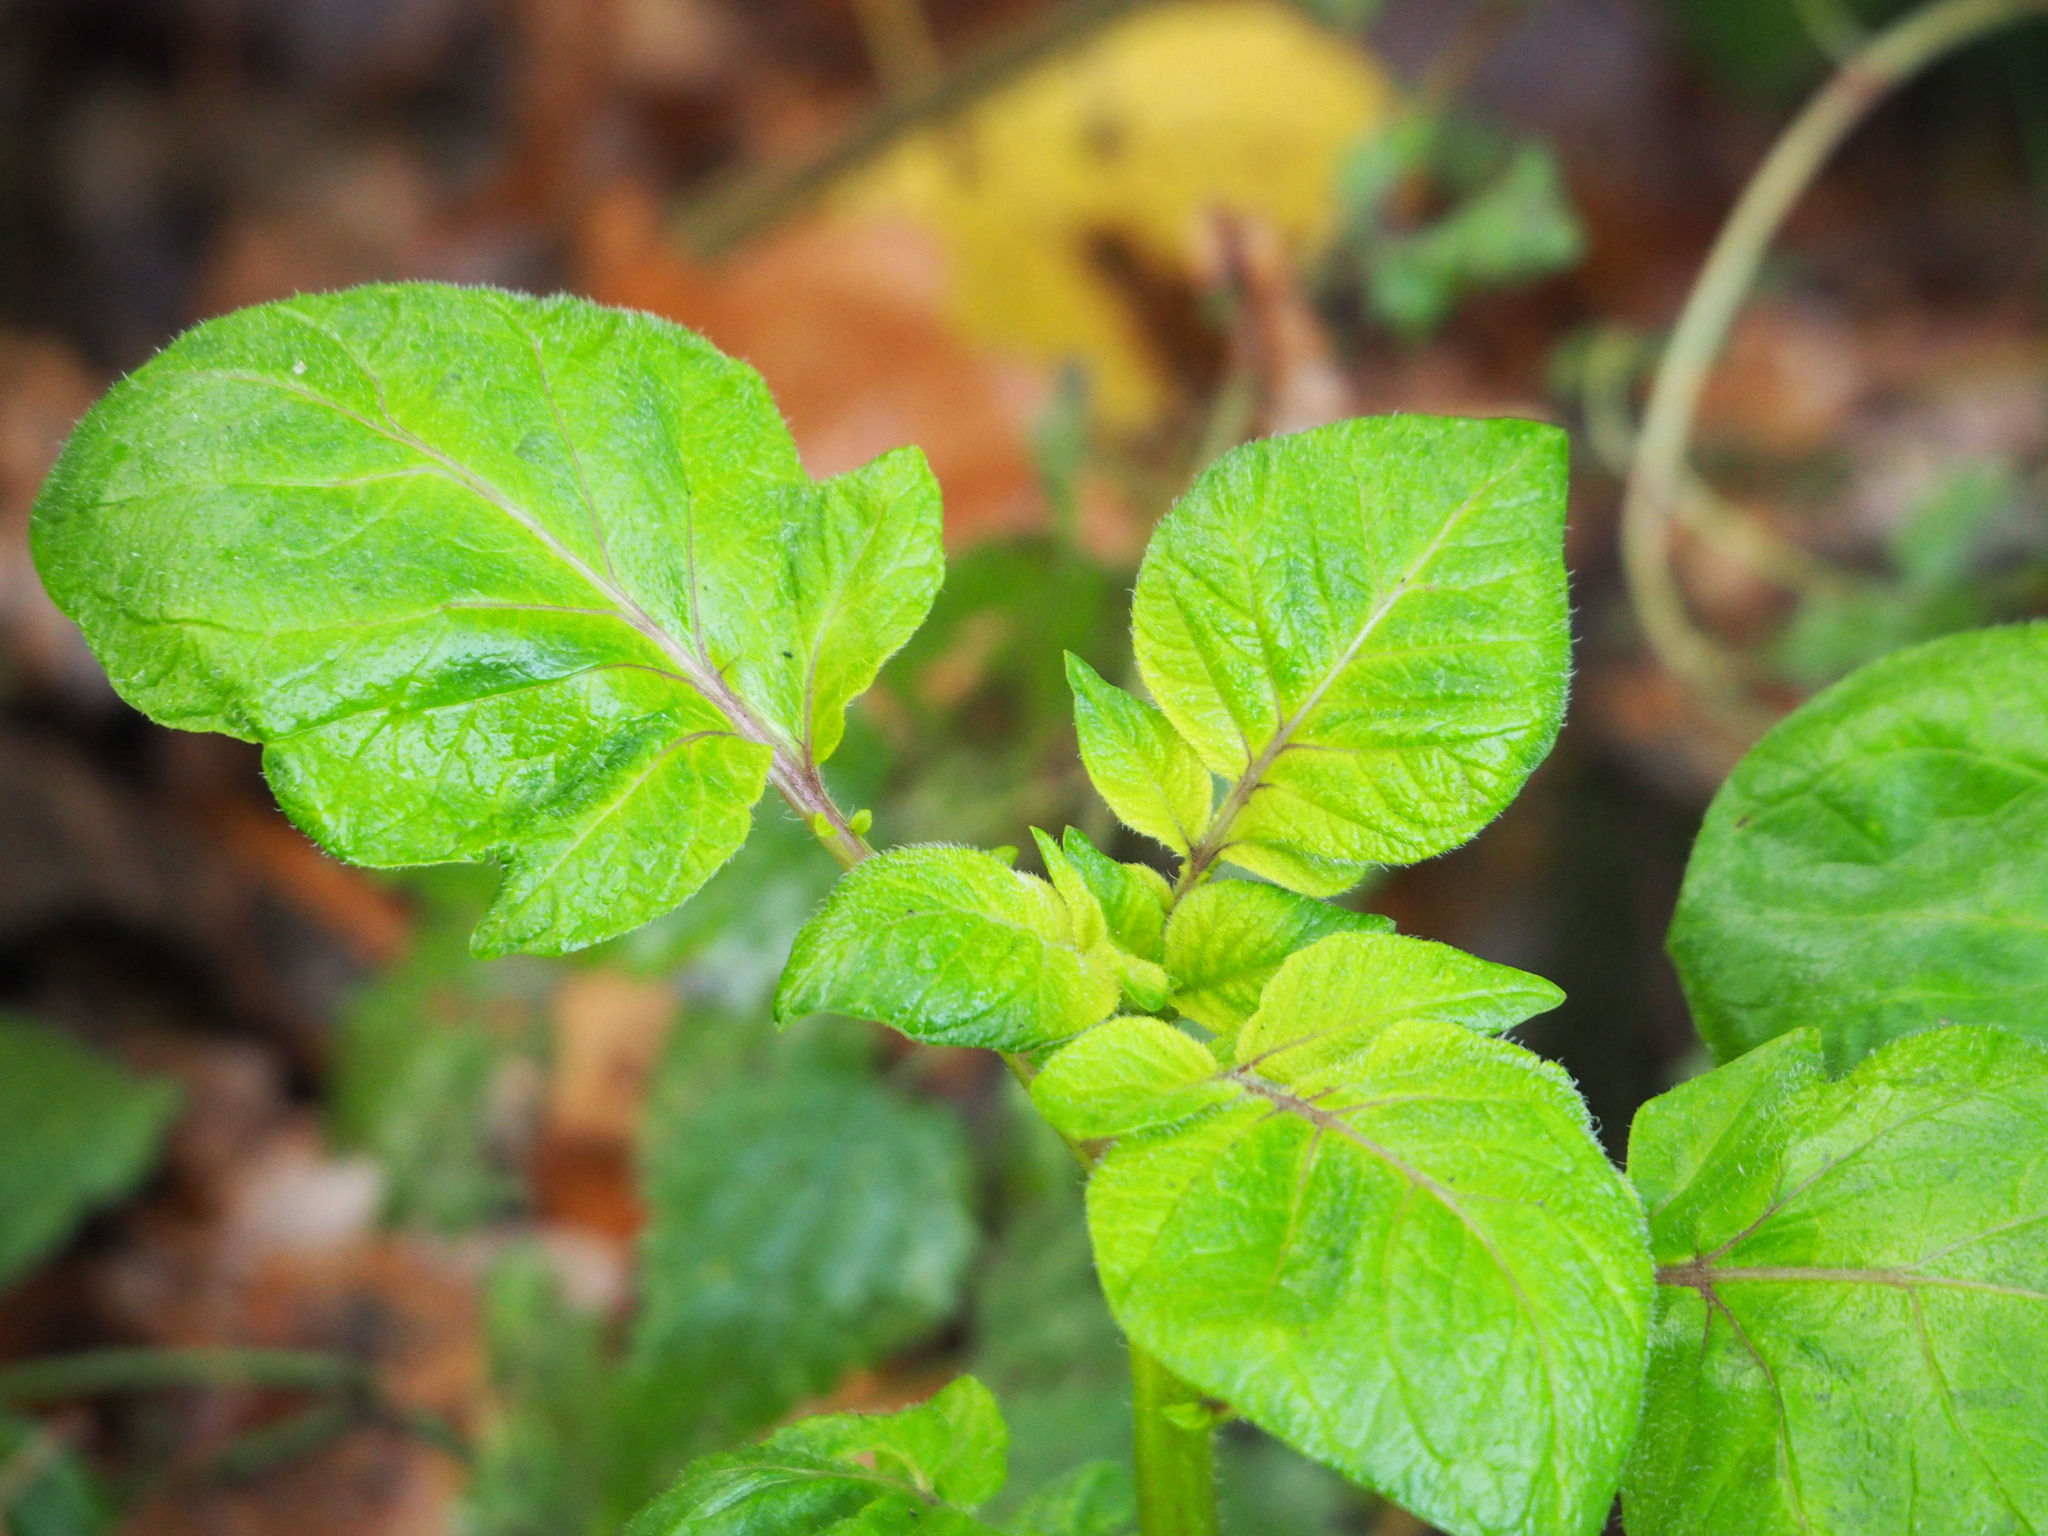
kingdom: Plantae
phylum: Tracheophyta
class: Magnoliopsida
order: Solanales
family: Solanaceae
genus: Solanum
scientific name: Solanum tuberosum
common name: Potato
